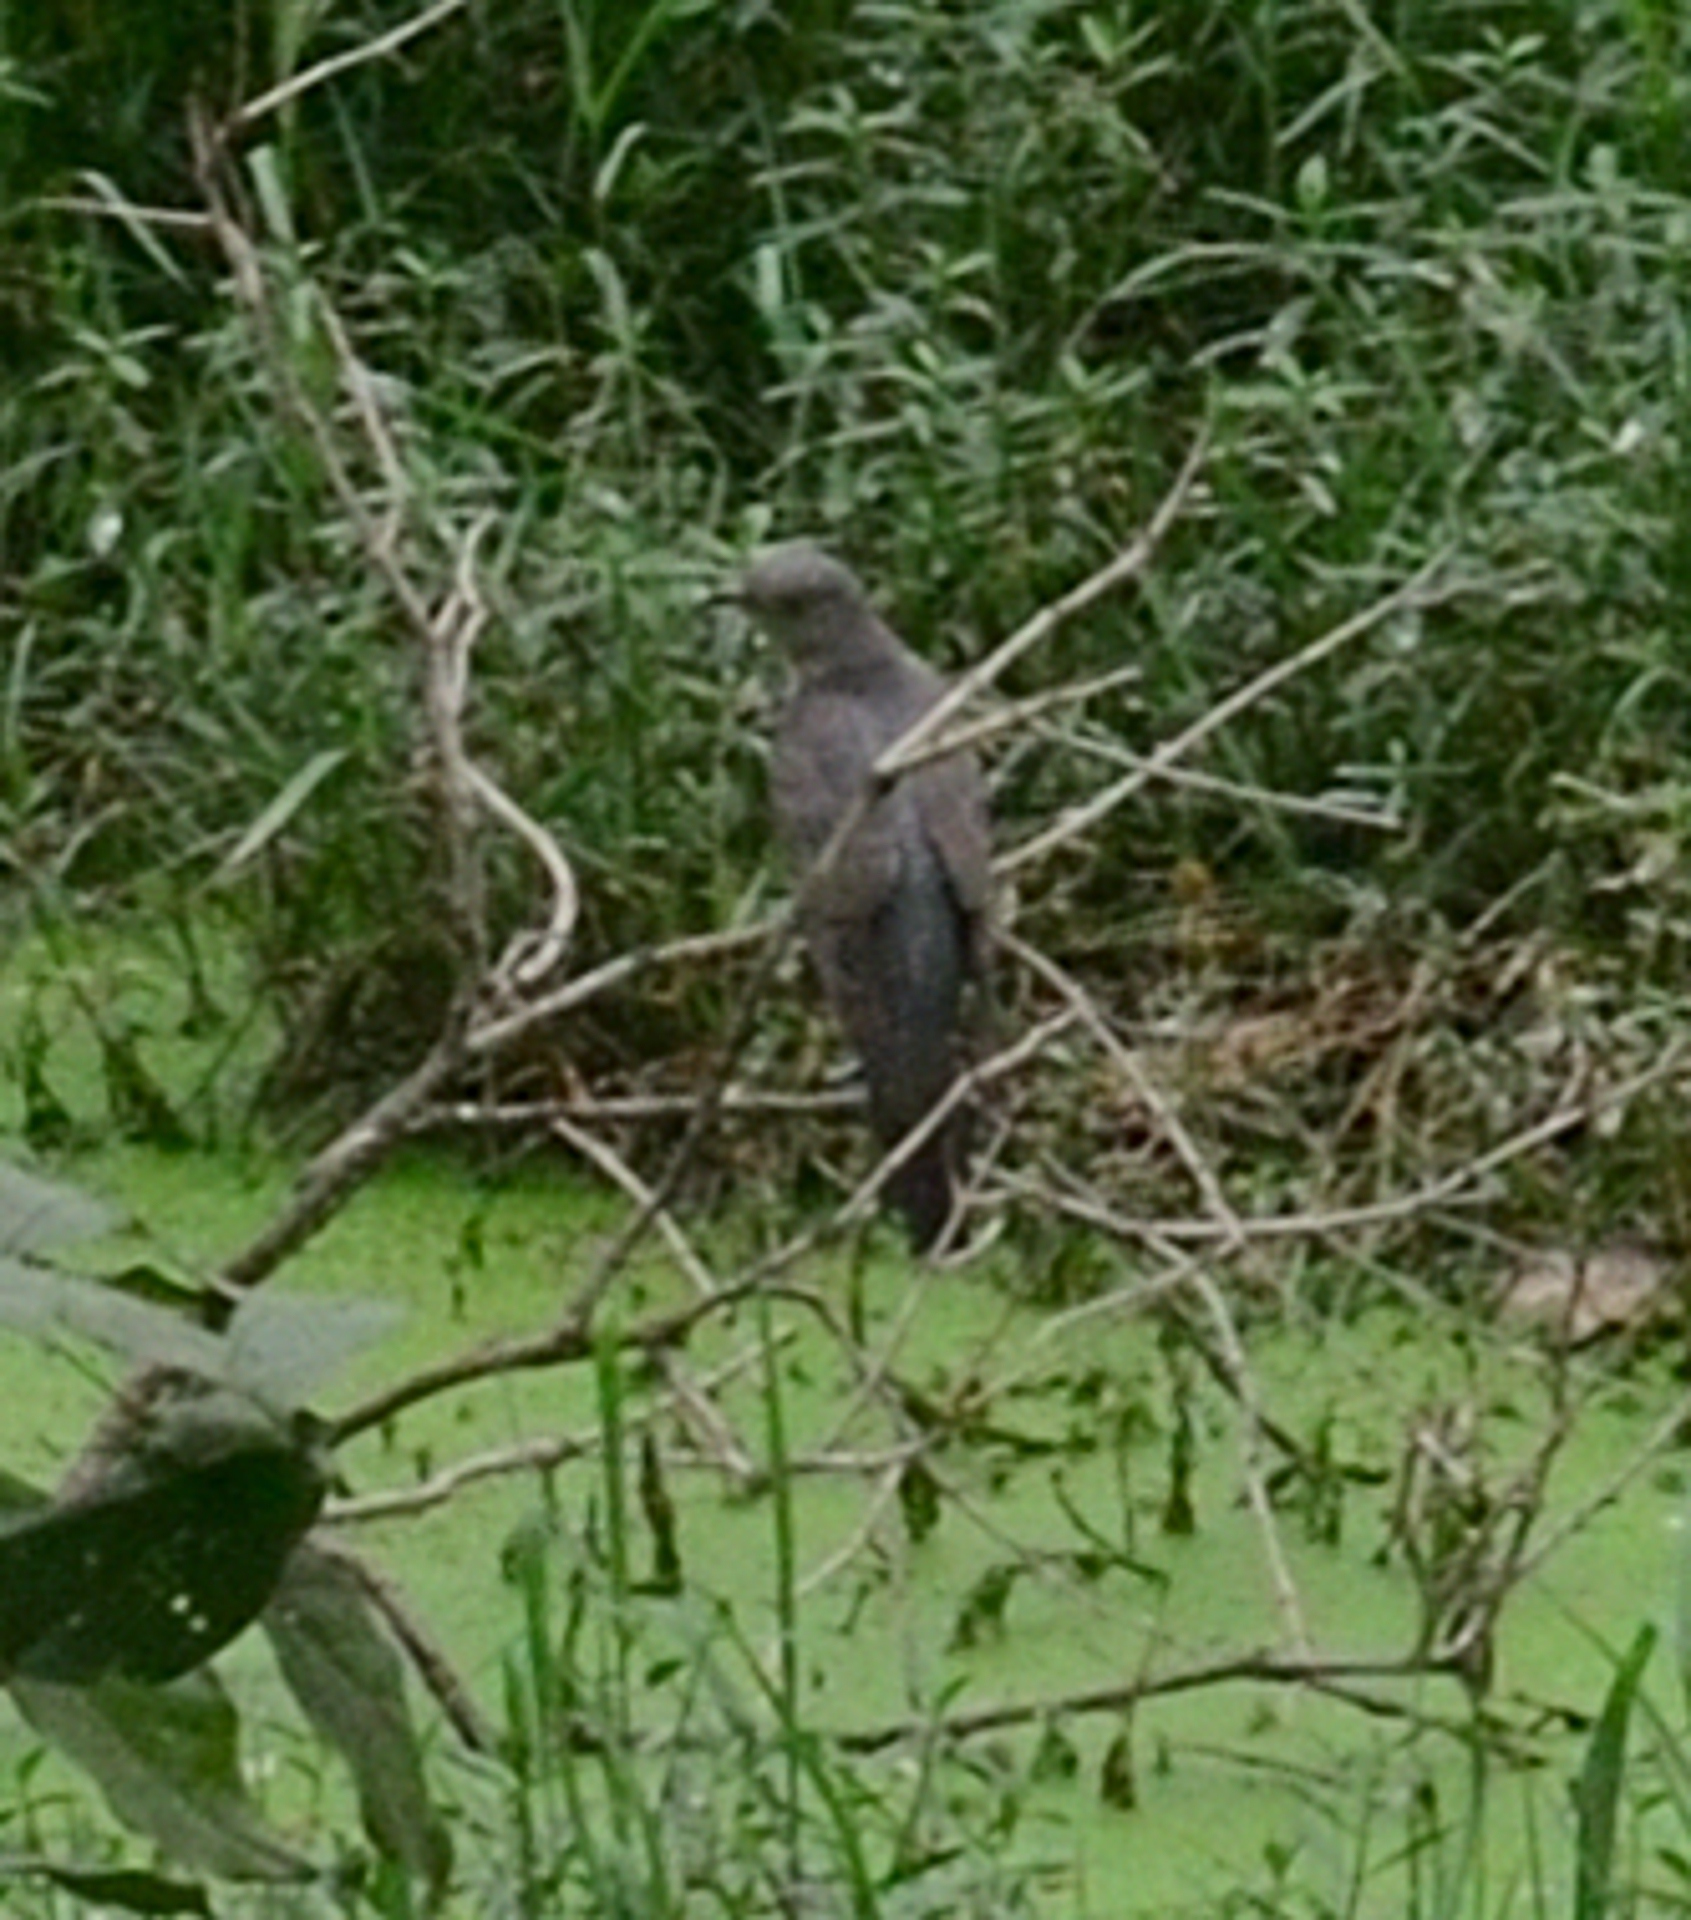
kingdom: Animalia
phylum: Chordata
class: Aves
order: Cuculiformes
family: Cuculidae
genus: Cuculus
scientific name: Cuculus varius
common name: Common hawk cuckoo
